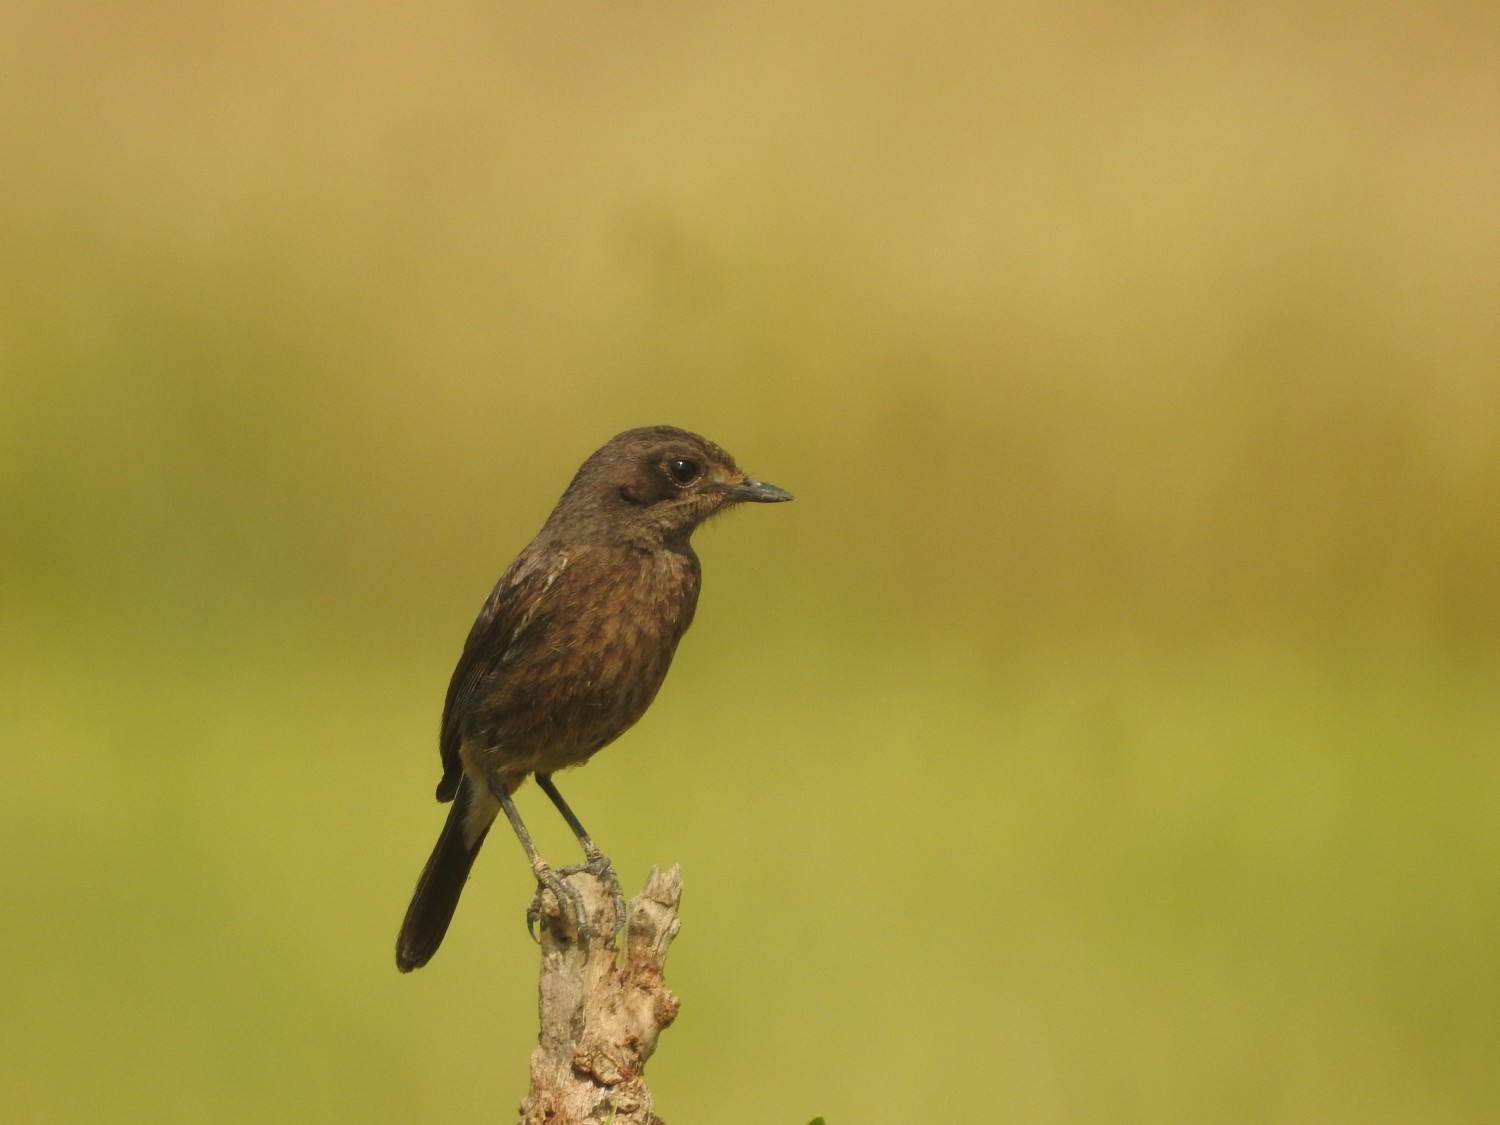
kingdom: Animalia
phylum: Chordata
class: Aves
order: Passeriformes
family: Muscicapidae
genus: Saxicola
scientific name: Saxicola caprata
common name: Pied bush chat
